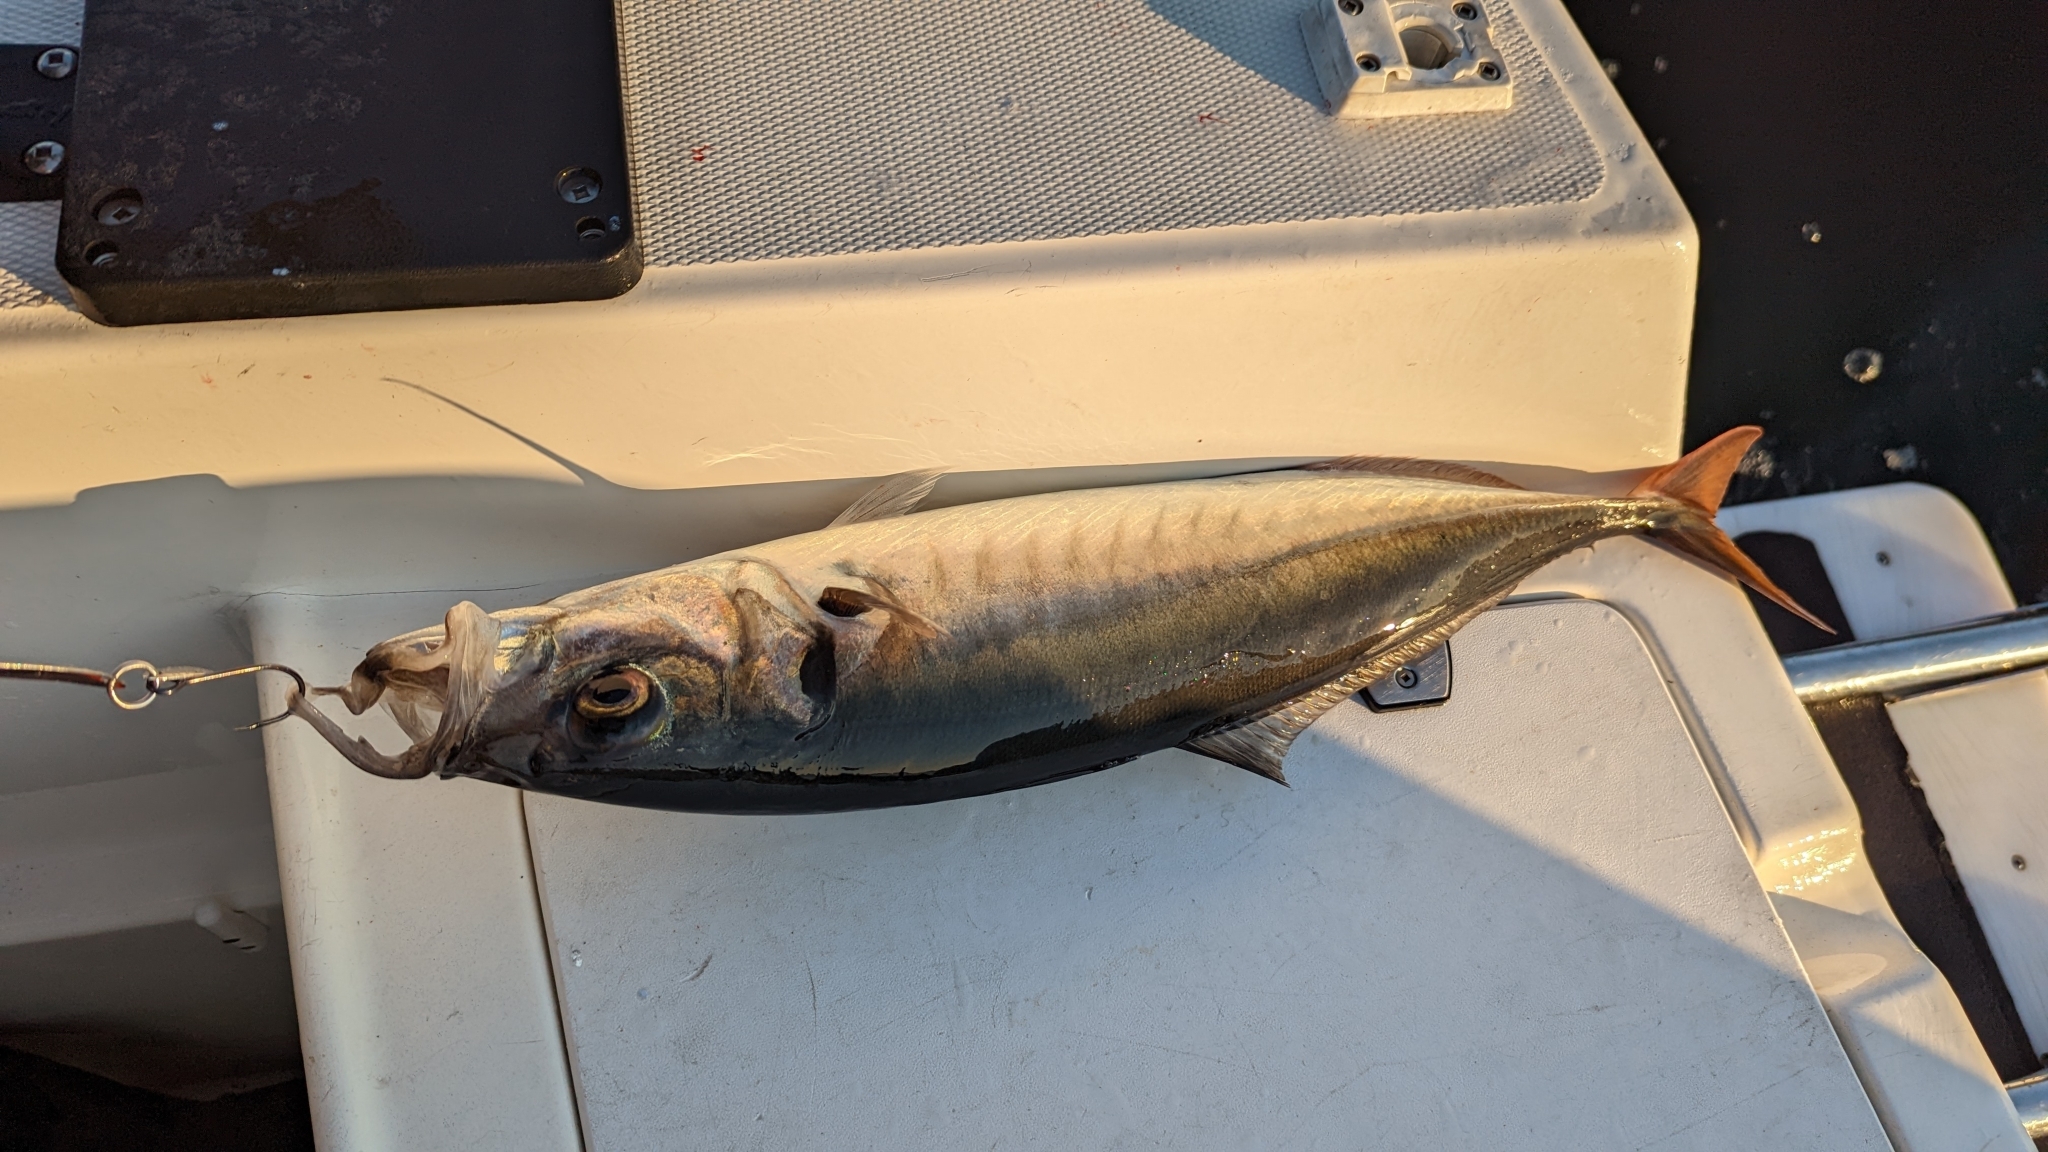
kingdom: Animalia
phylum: Chordata
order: Perciformes
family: Carangidae
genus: Trachurus
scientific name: Trachurus symmetricus
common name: Jack mackerel
